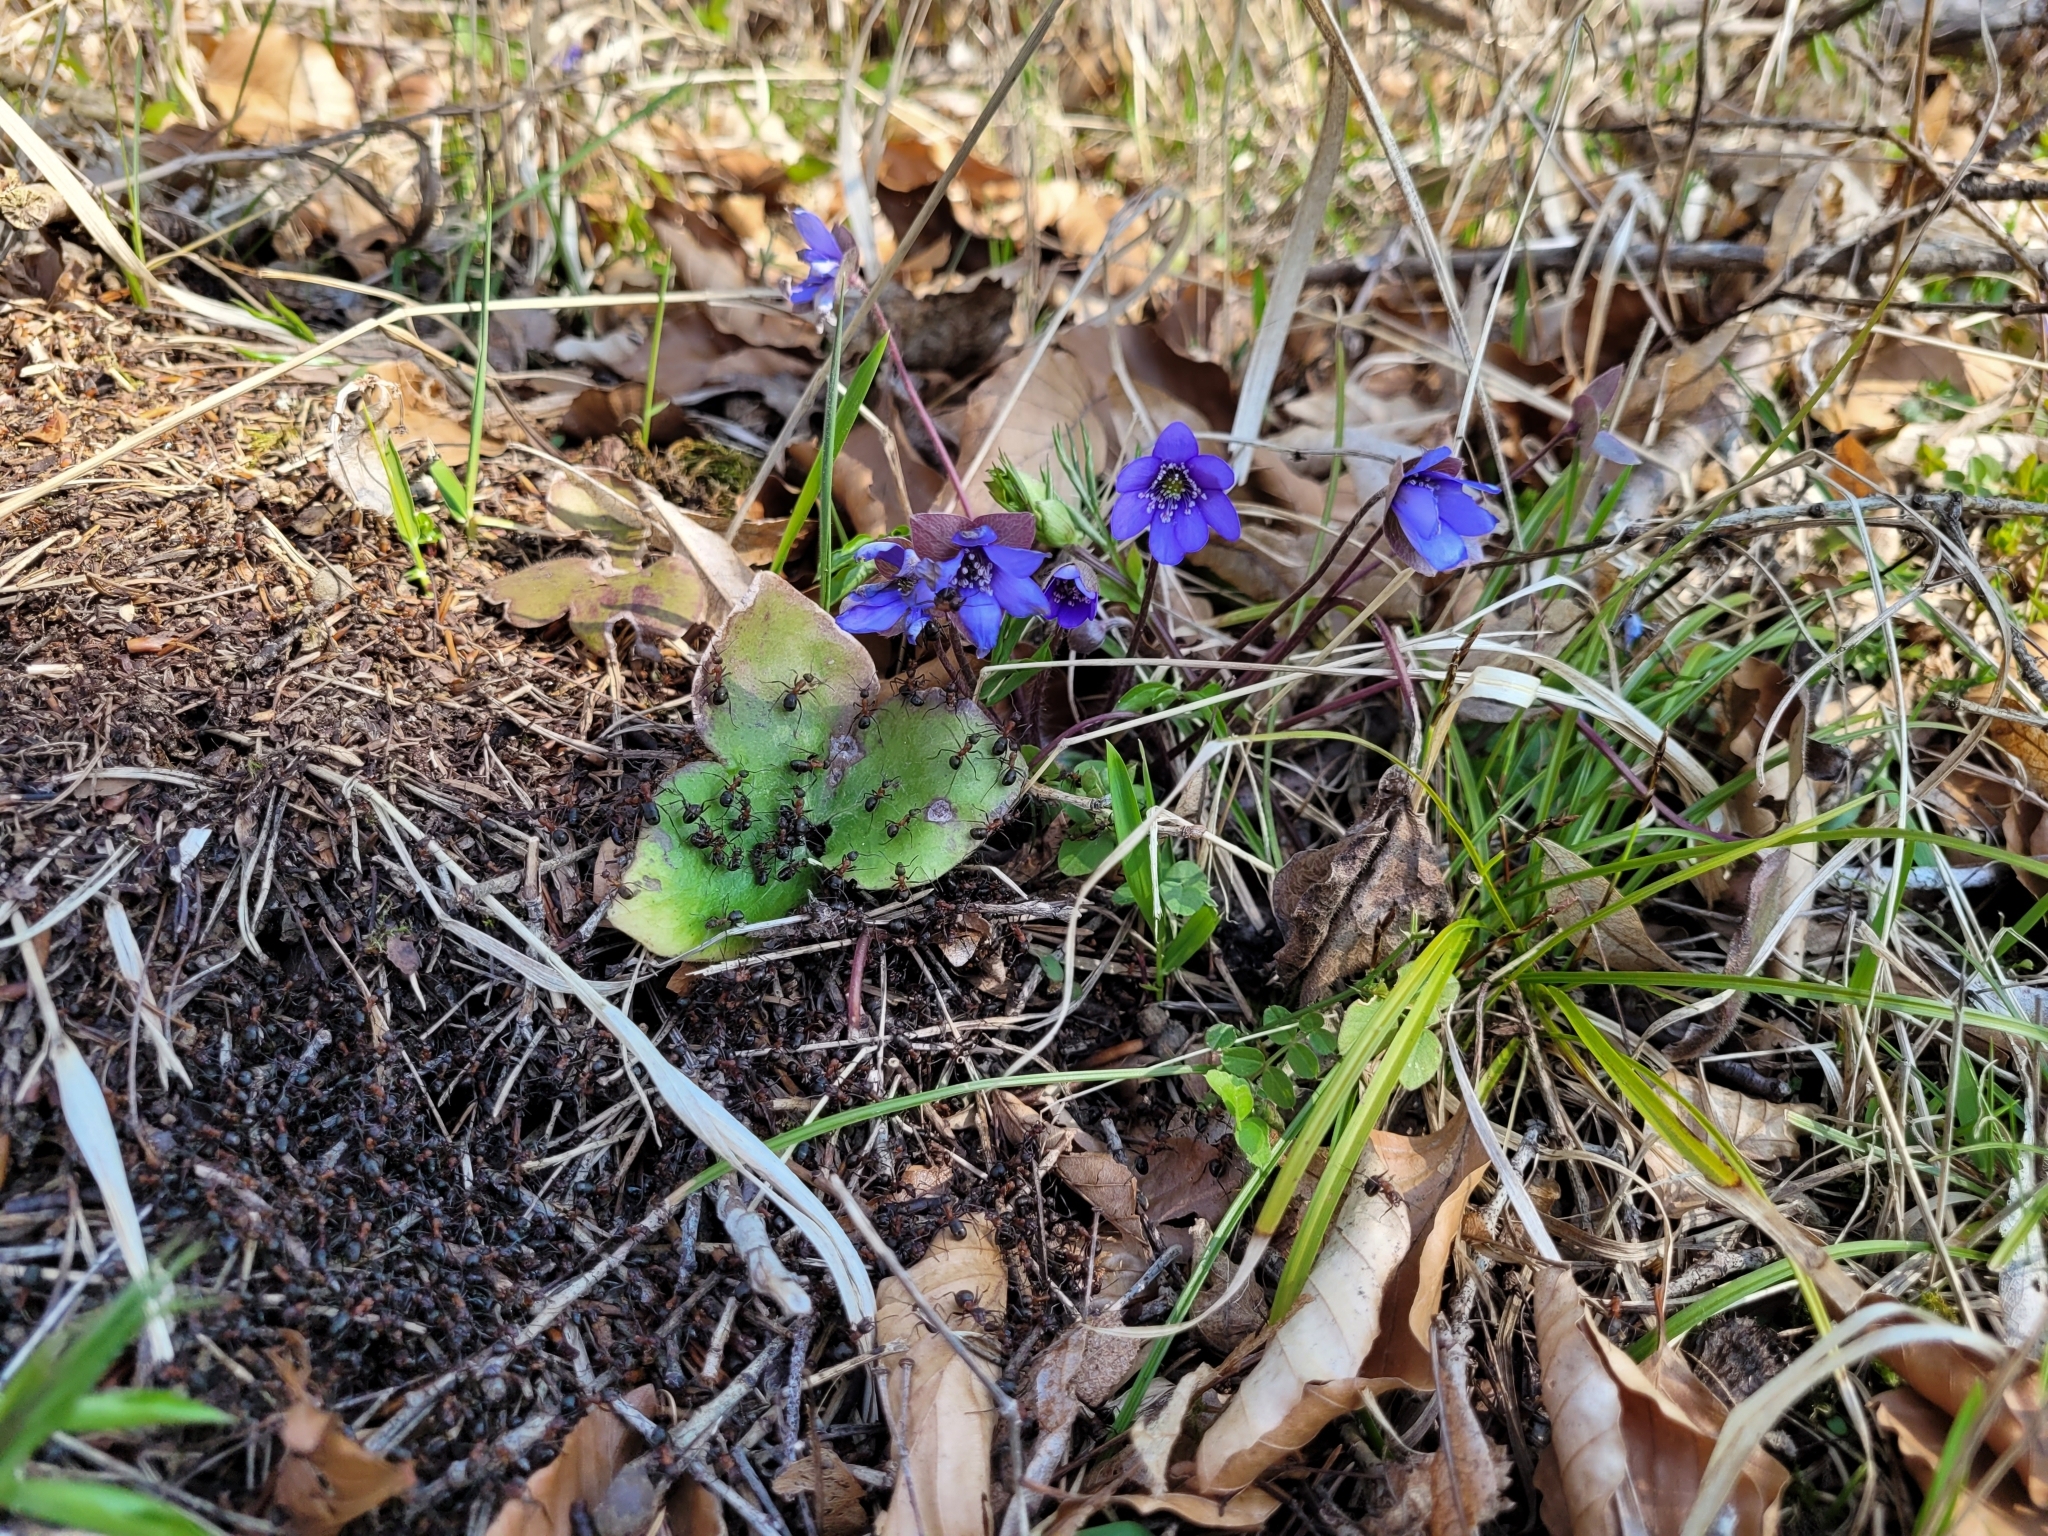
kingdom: Plantae
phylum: Tracheophyta
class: Magnoliopsida
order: Ranunculales
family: Ranunculaceae
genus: Hepatica
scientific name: Hepatica nobilis
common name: Liverleaf
